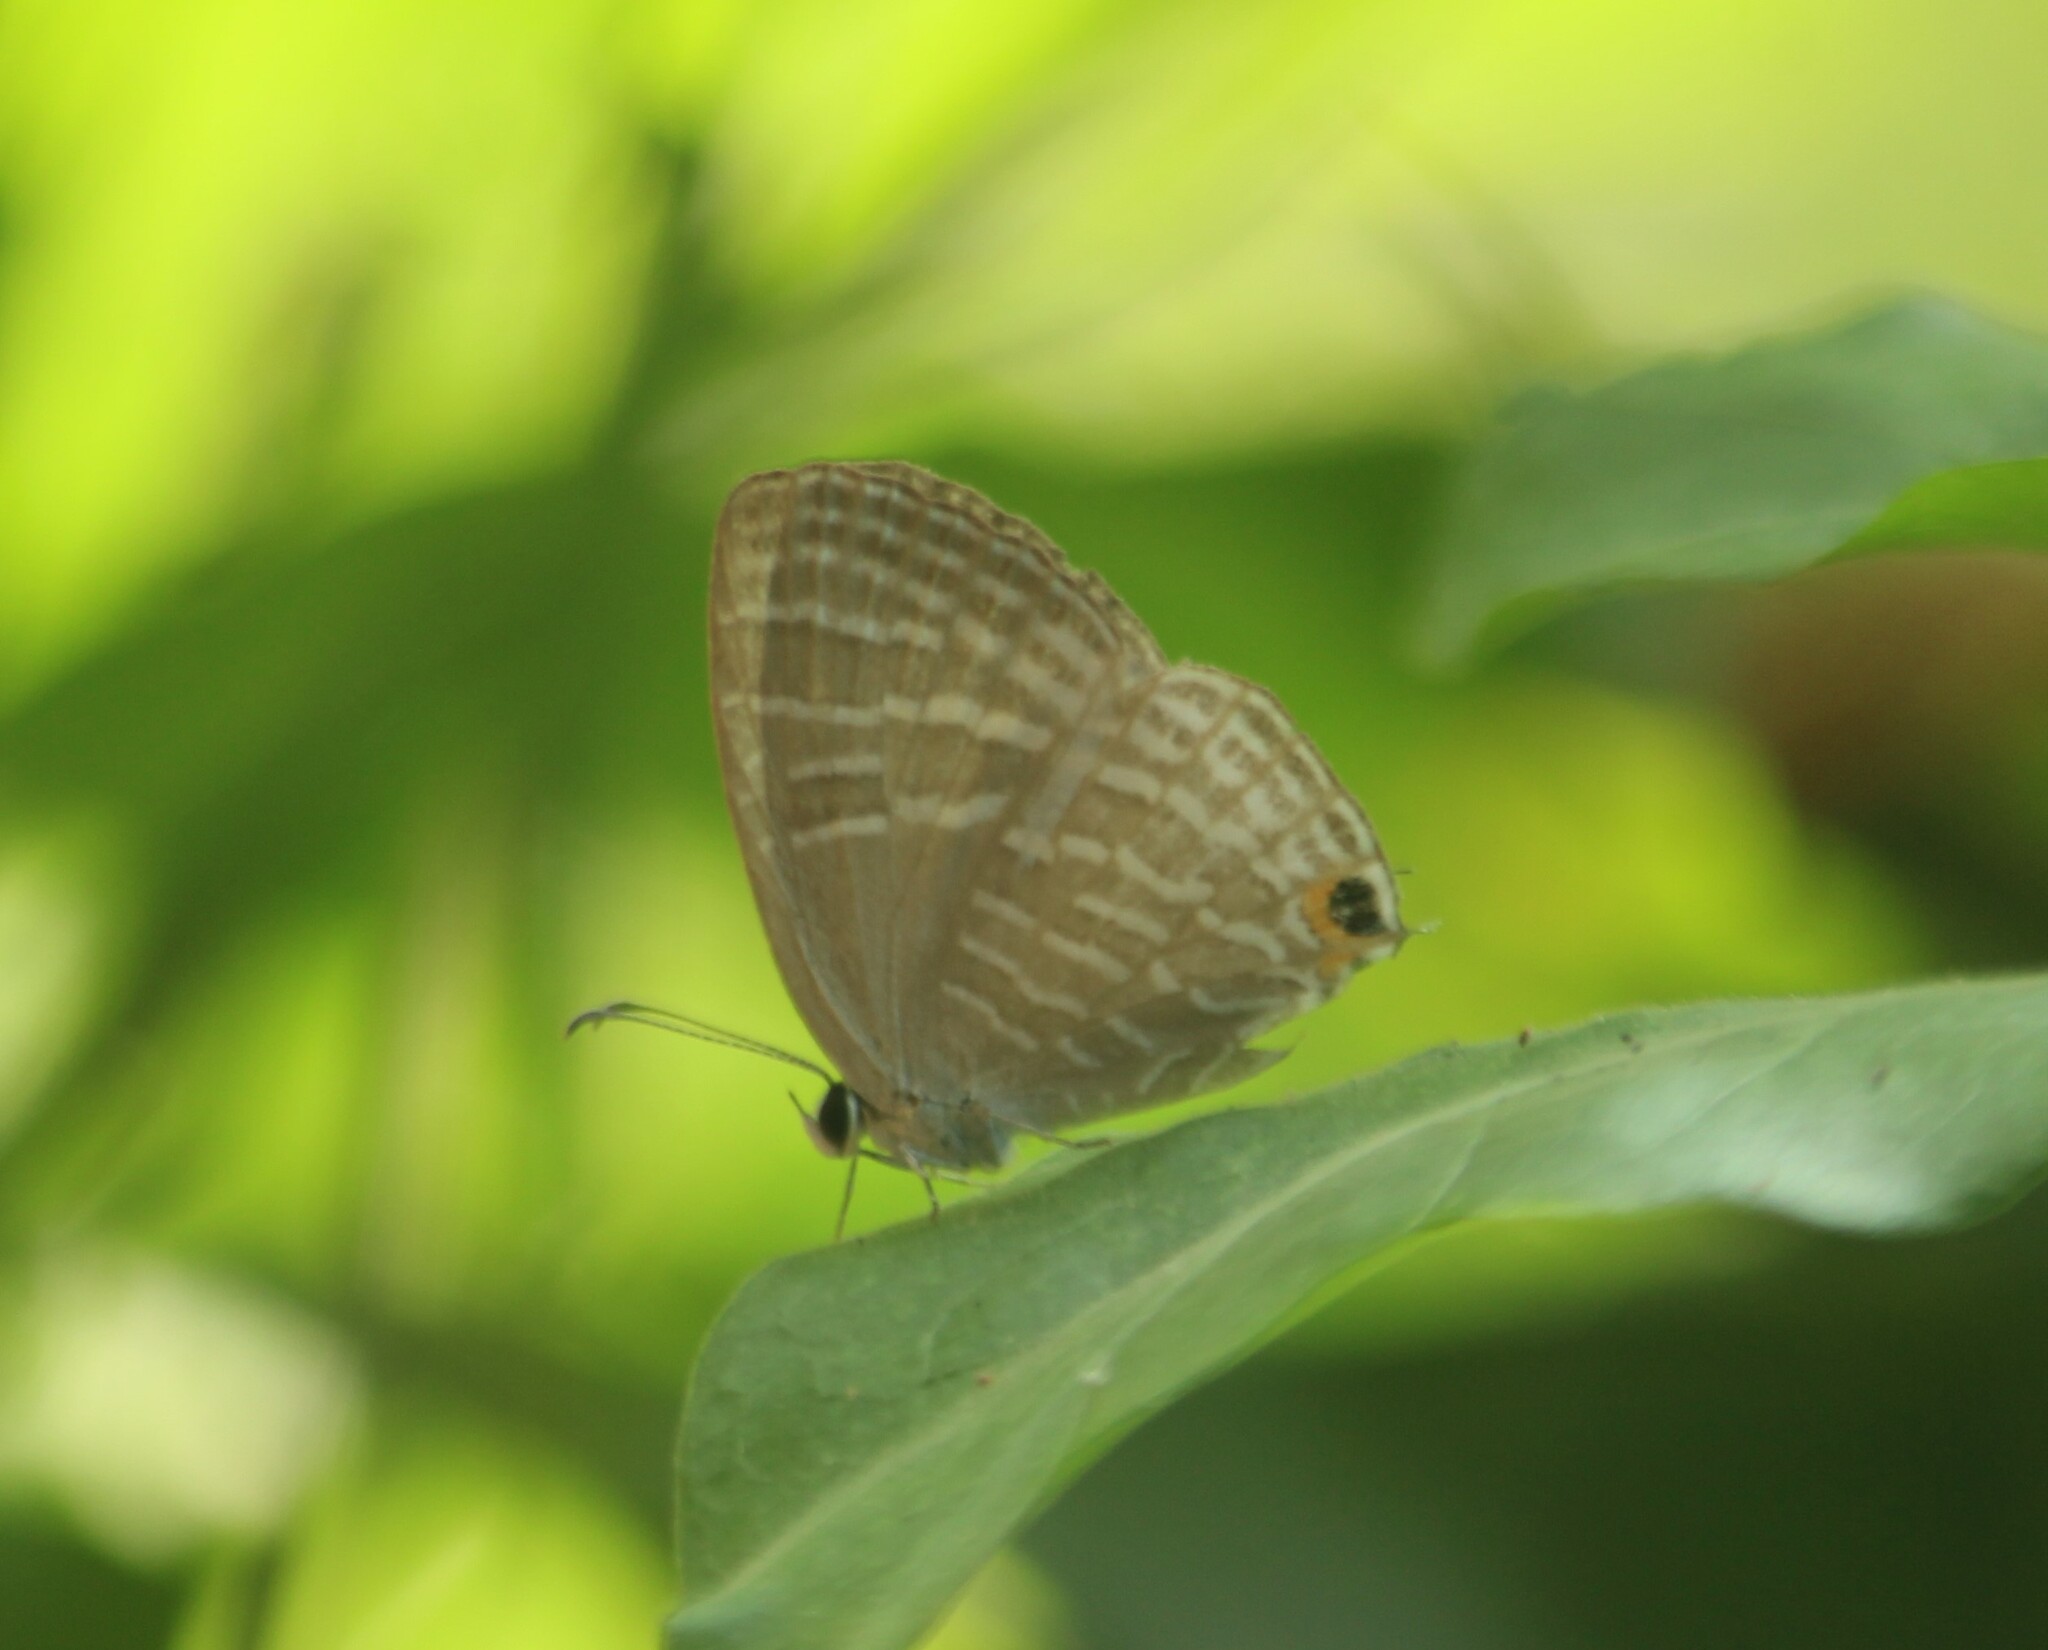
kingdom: Animalia
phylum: Arthropoda
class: Insecta
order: Lepidoptera
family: Lycaenidae
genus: Jamides
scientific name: Jamides celeno
